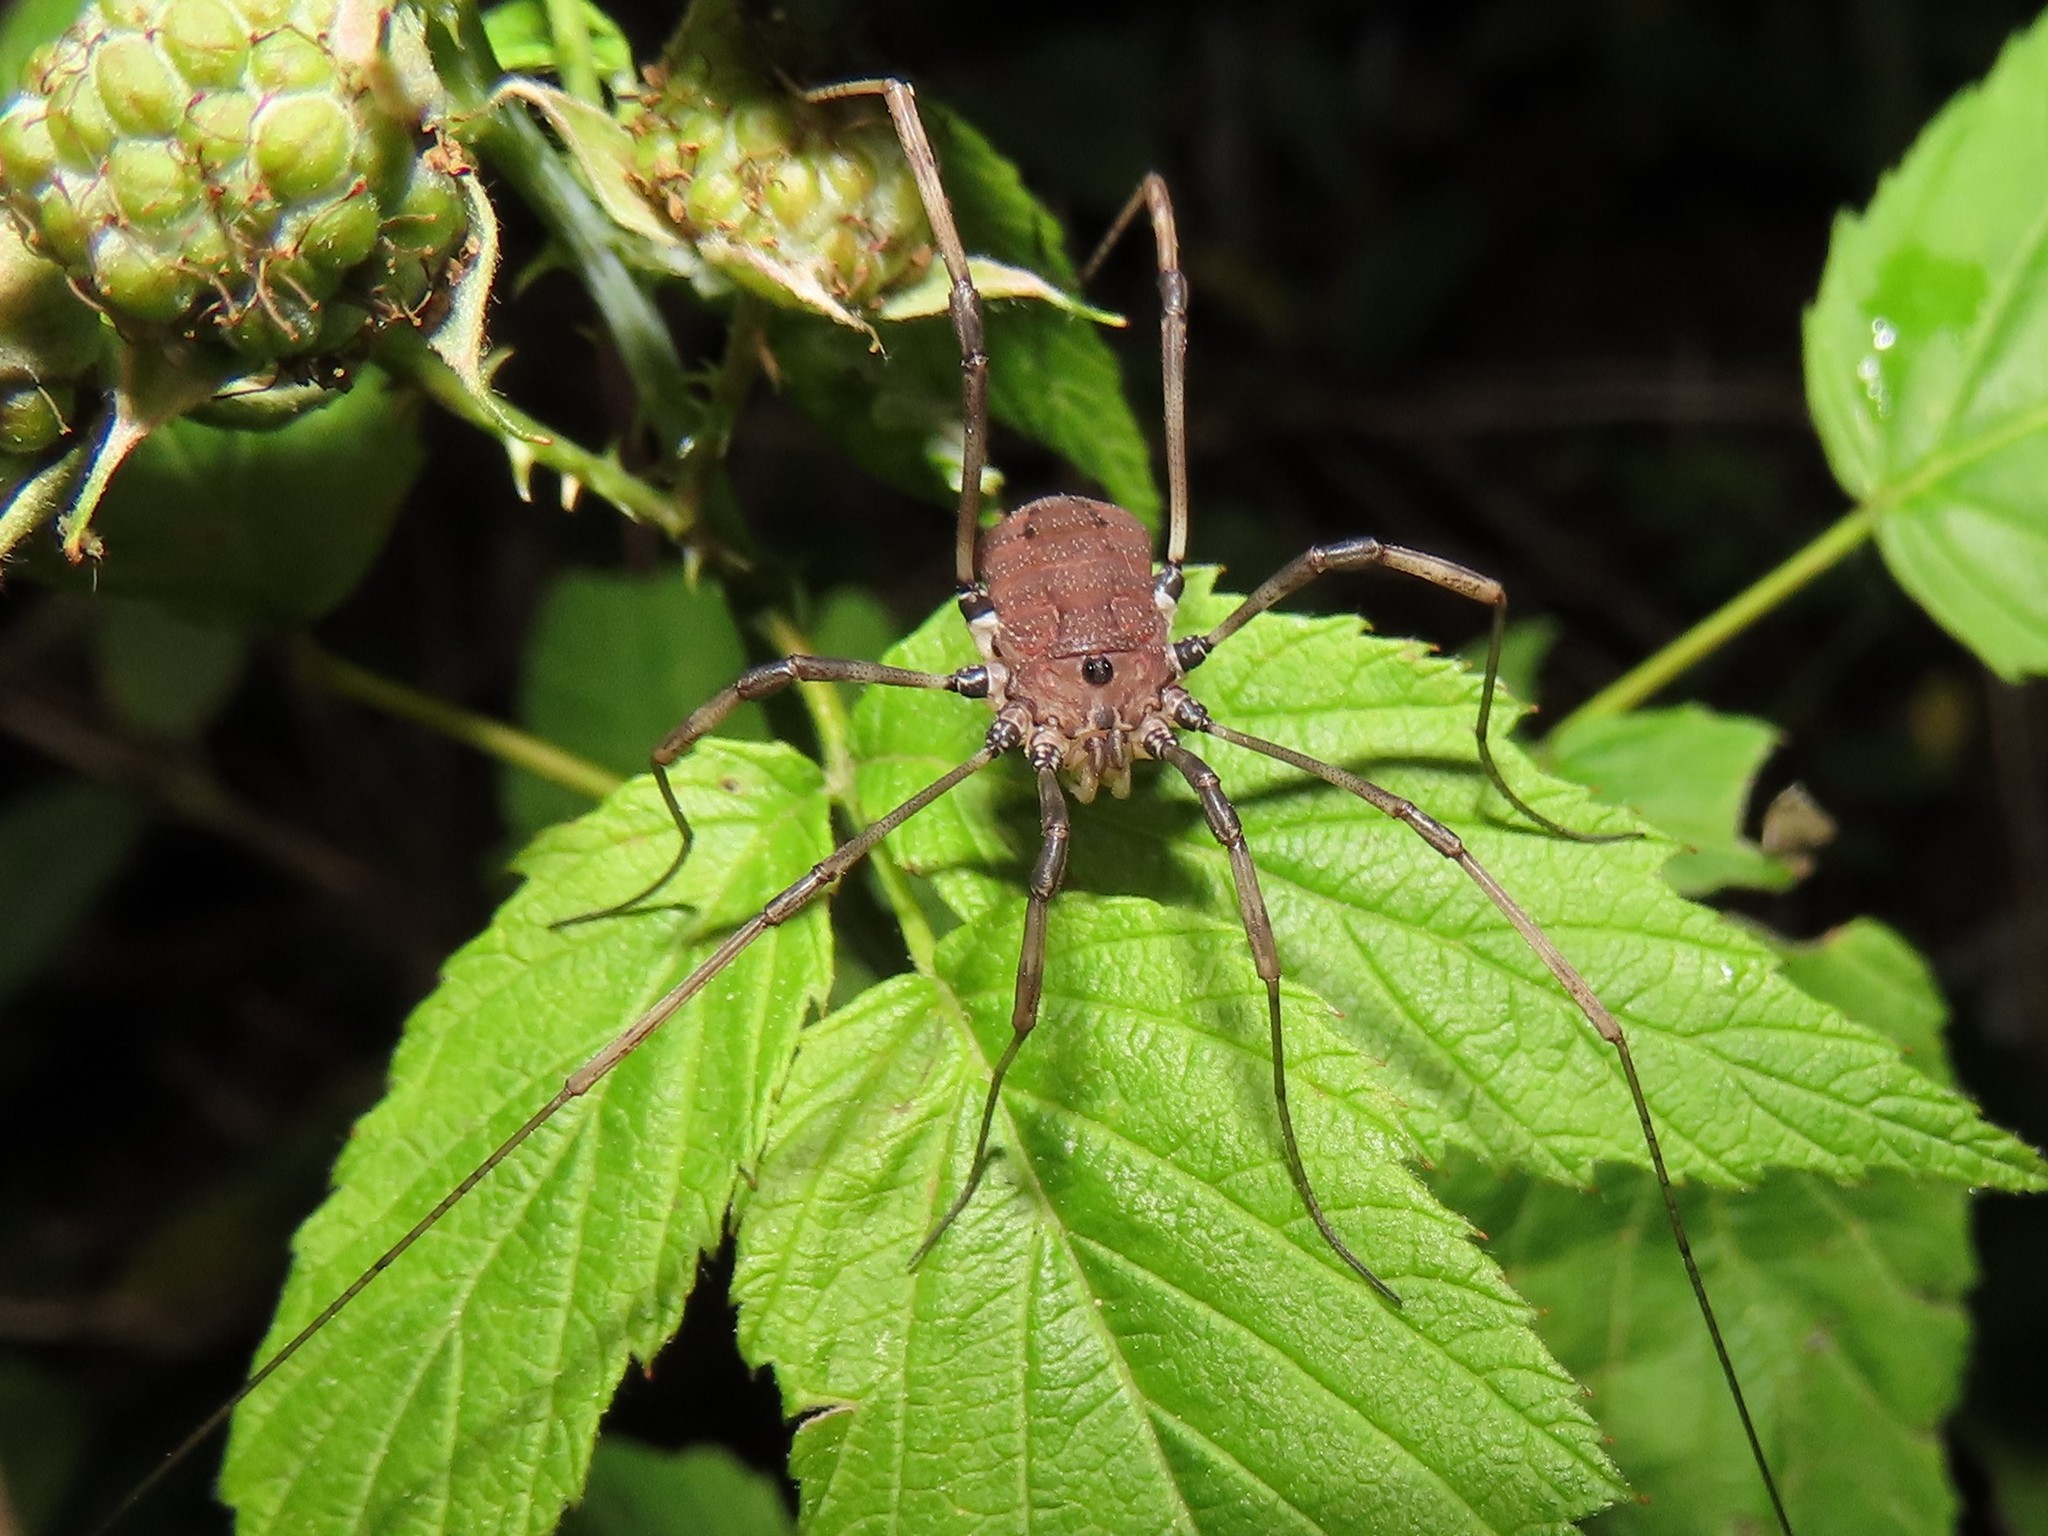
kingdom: Animalia
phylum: Arthropoda
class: Arachnida
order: Opiliones
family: Sclerosomatidae
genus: Hadrobunus
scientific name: Hadrobunus maculosus
